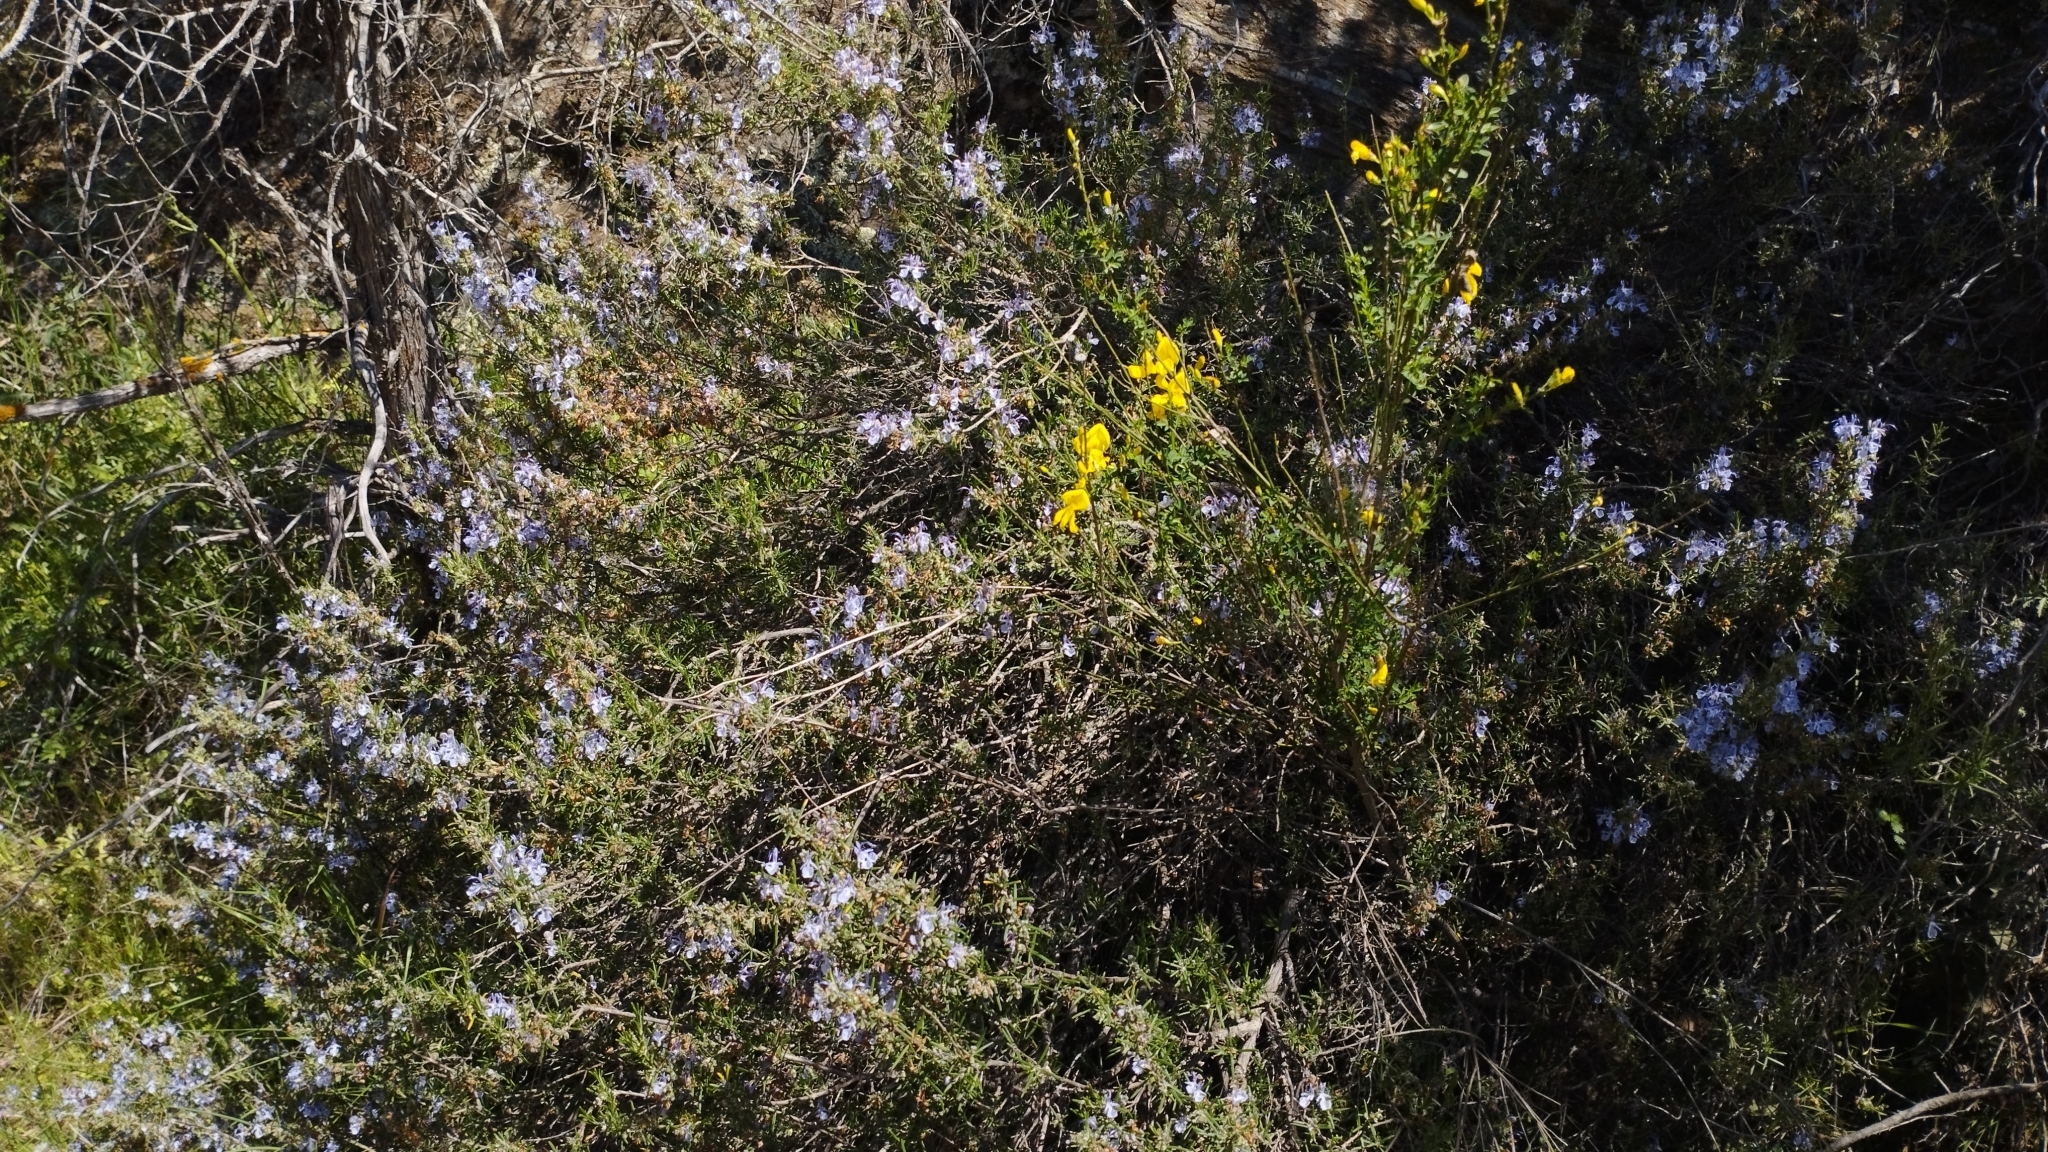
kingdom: Plantae
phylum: Tracheophyta
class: Magnoliopsida
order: Lamiales
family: Lamiaceae
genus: Salvia
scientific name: Salvia rosmarinus
